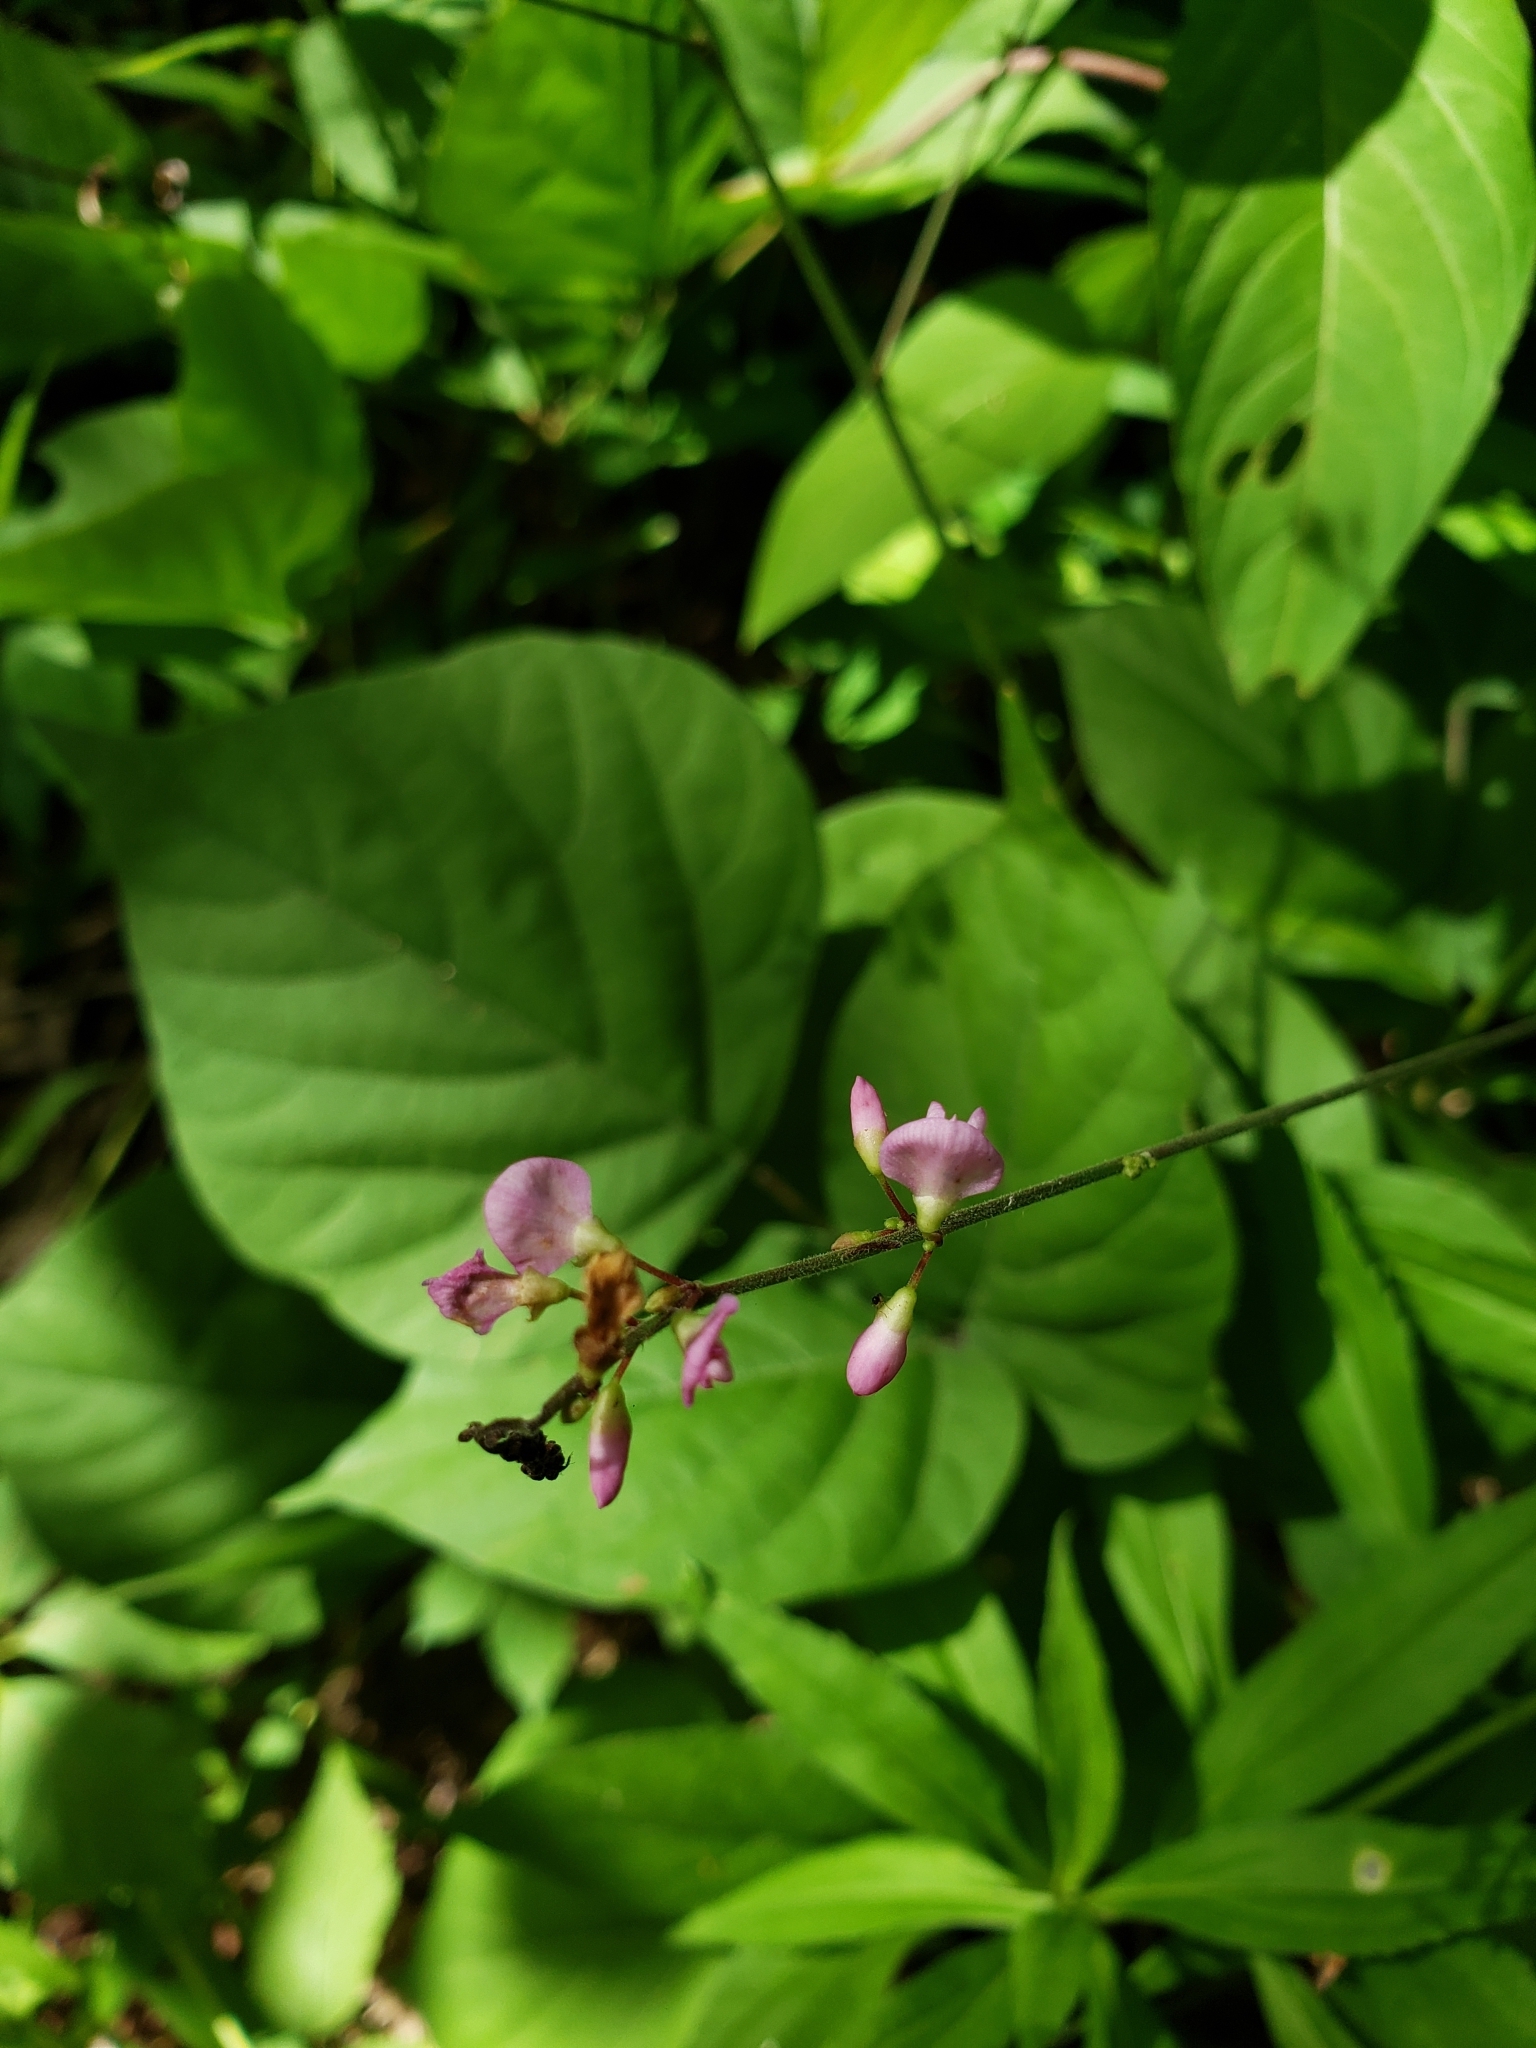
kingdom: Plantae
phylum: Tracheophyta
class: Magnoliopsida
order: Fabales
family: Fabaceae
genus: Hylodesmum
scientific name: Hylodesmum glutinosum
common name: Clustered-leaved tick-trefoil
